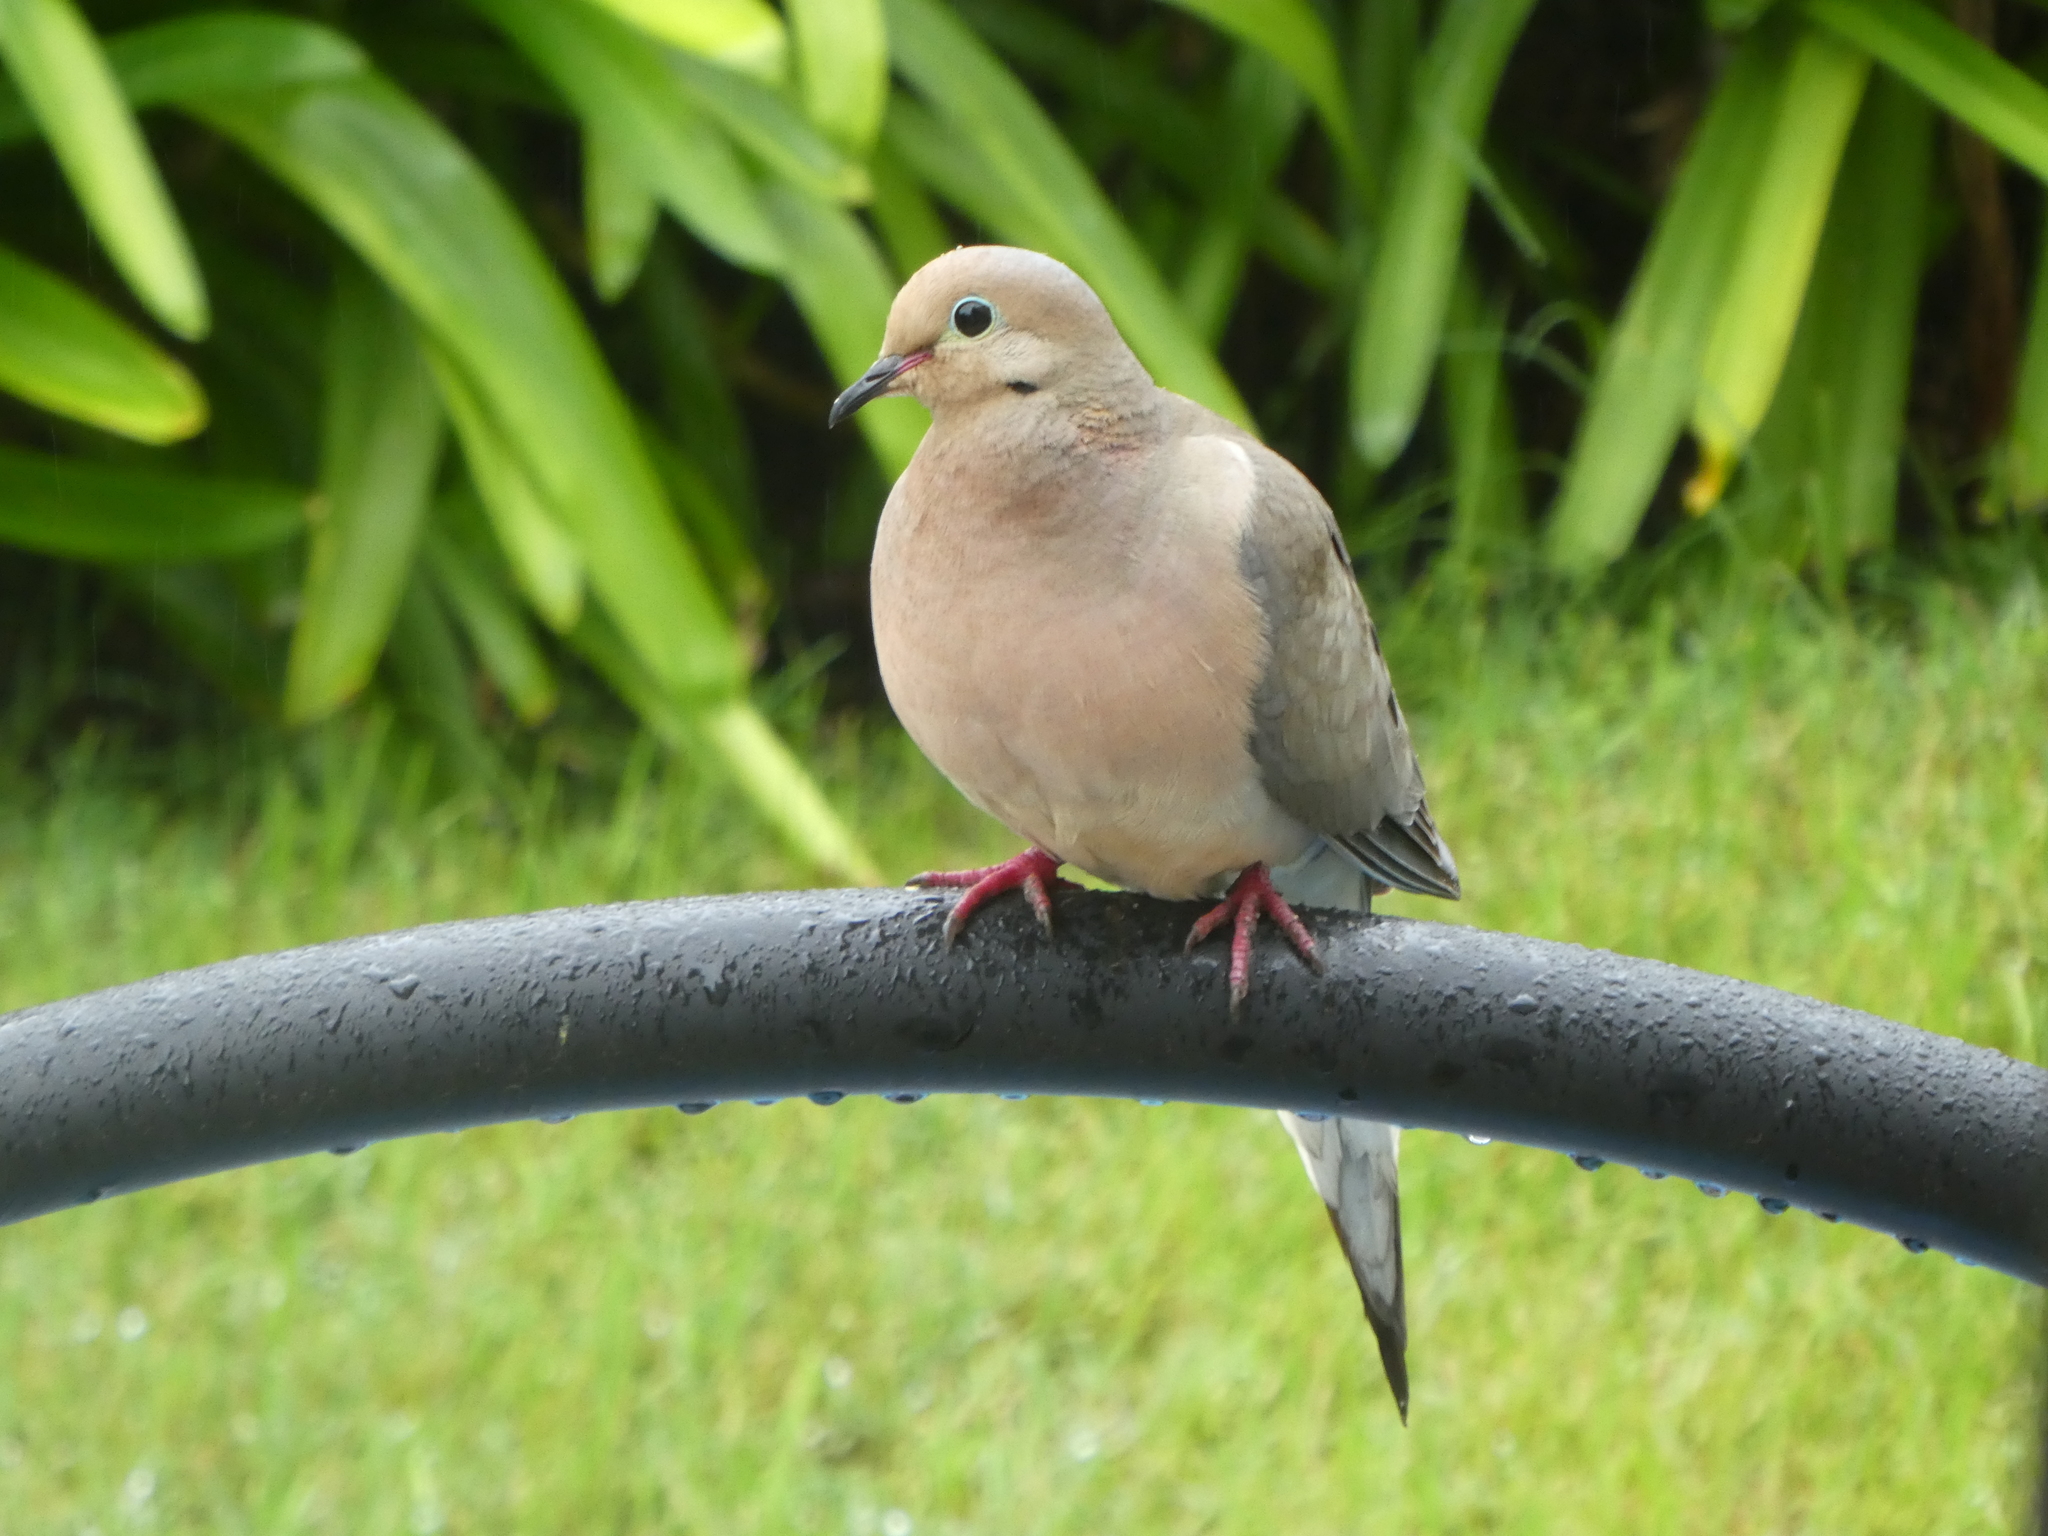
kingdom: Animalia
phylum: Chordata
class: Aves
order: Columbiformes
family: Columbidae
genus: Zenaida
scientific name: Zenaida macroura
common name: Mourning dove
